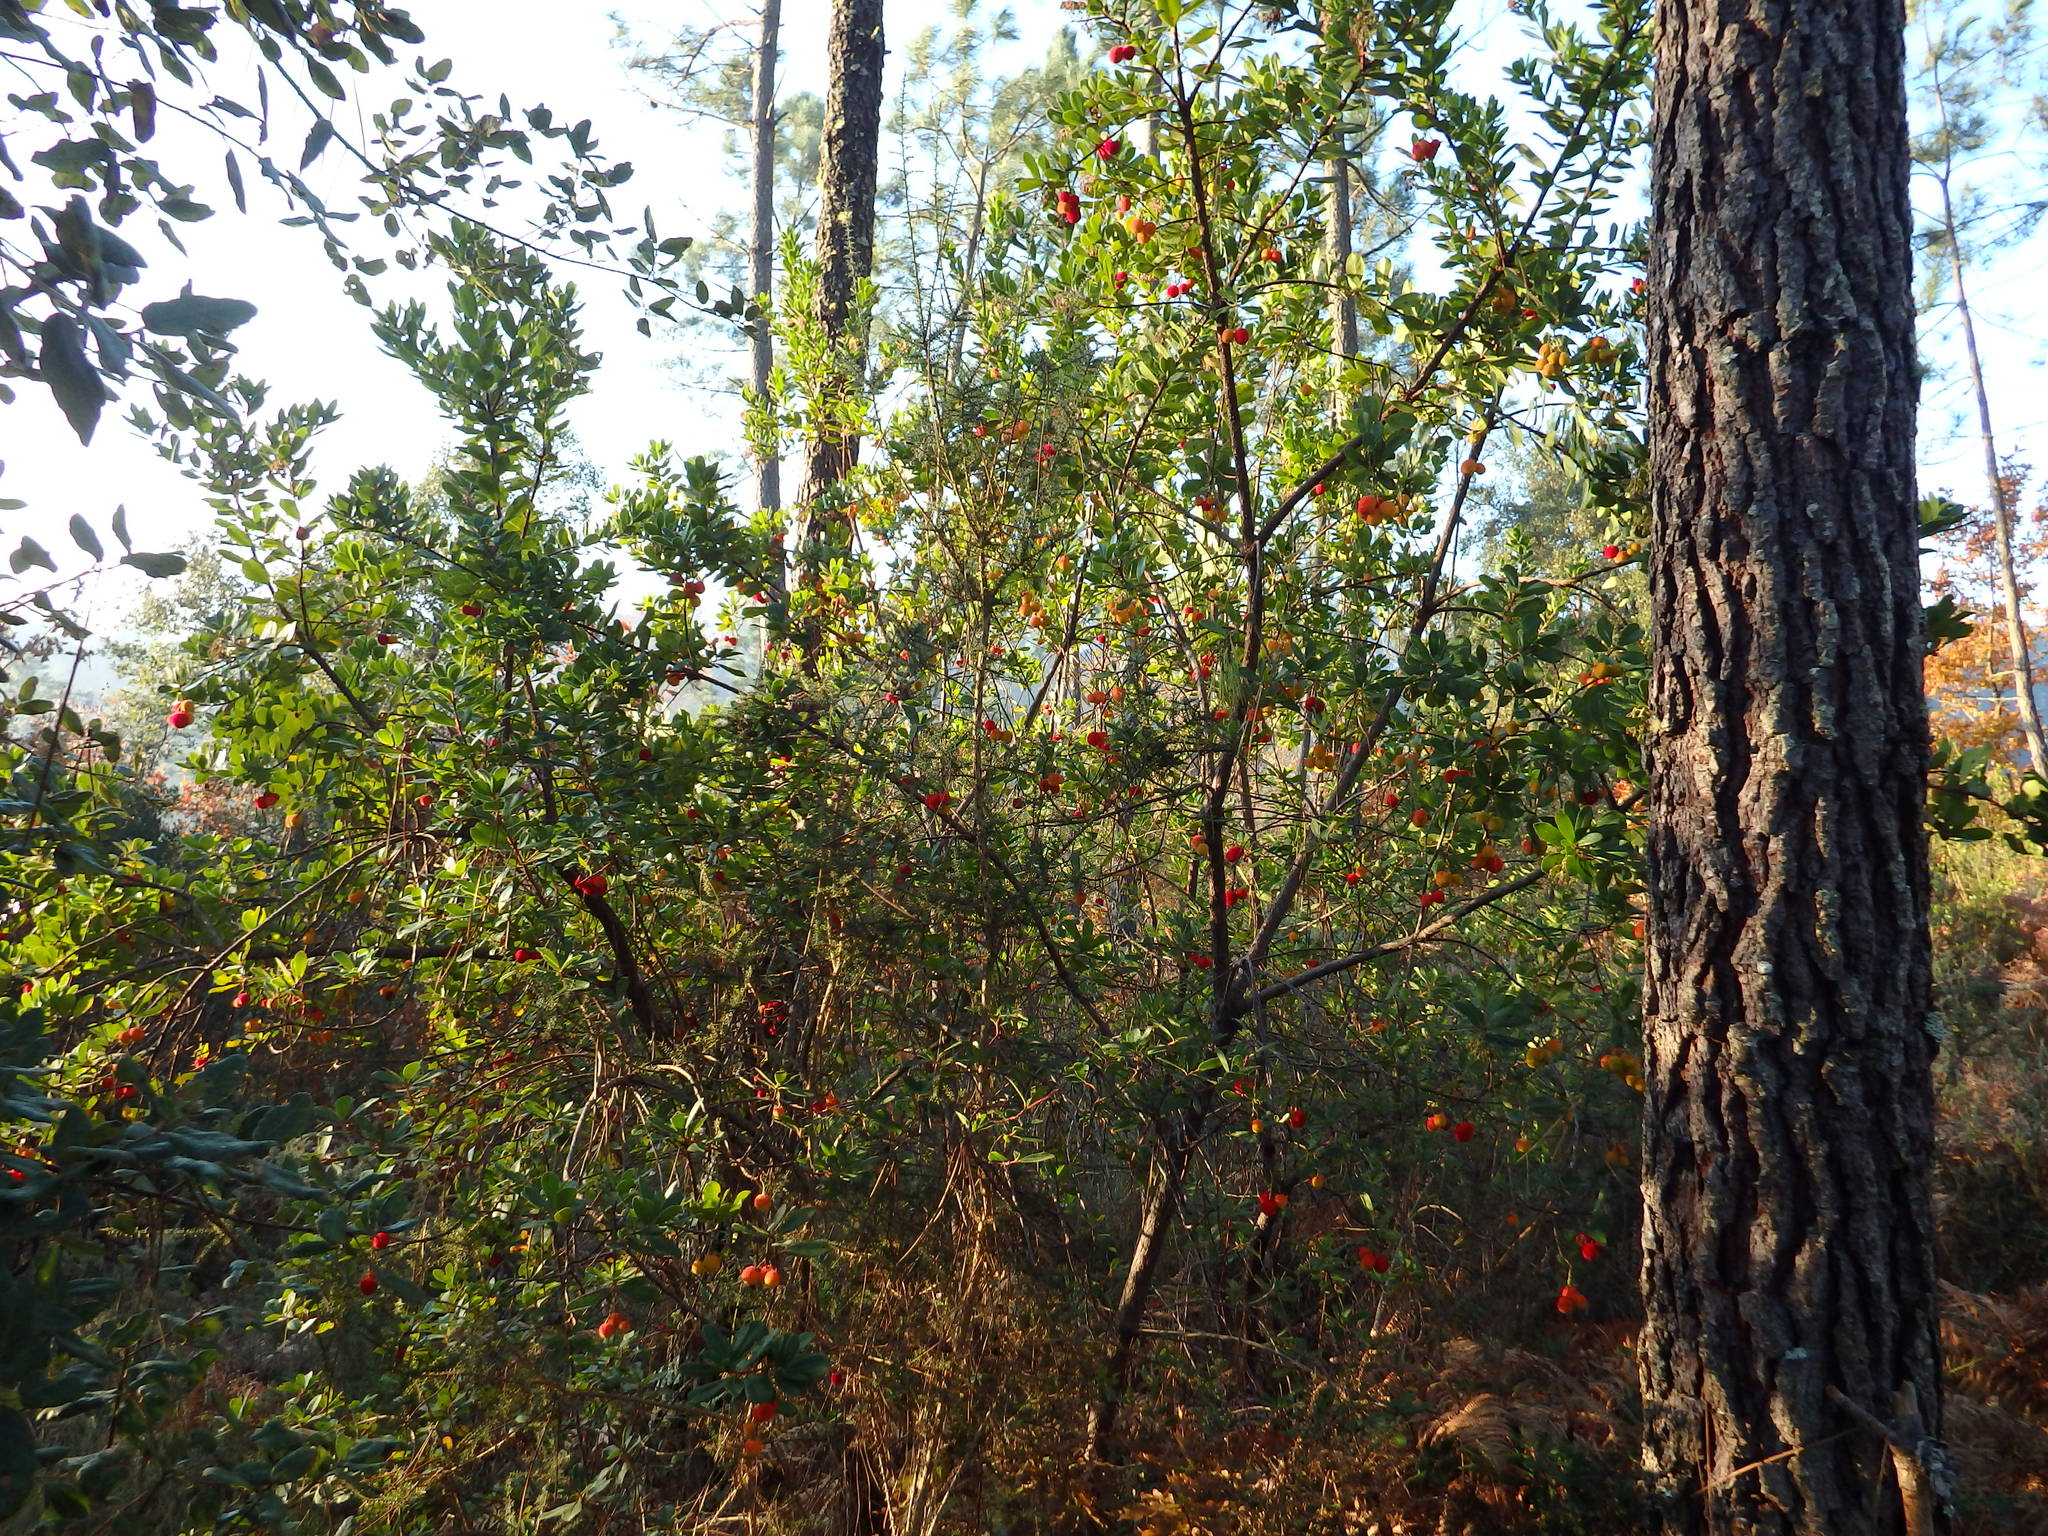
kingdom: Plantae
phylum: Tracheophyta
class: Magnoliopsida
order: Ericales
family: Ericaceae
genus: Arbutus
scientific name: Arbutus unedo
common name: Strawberry-tree
